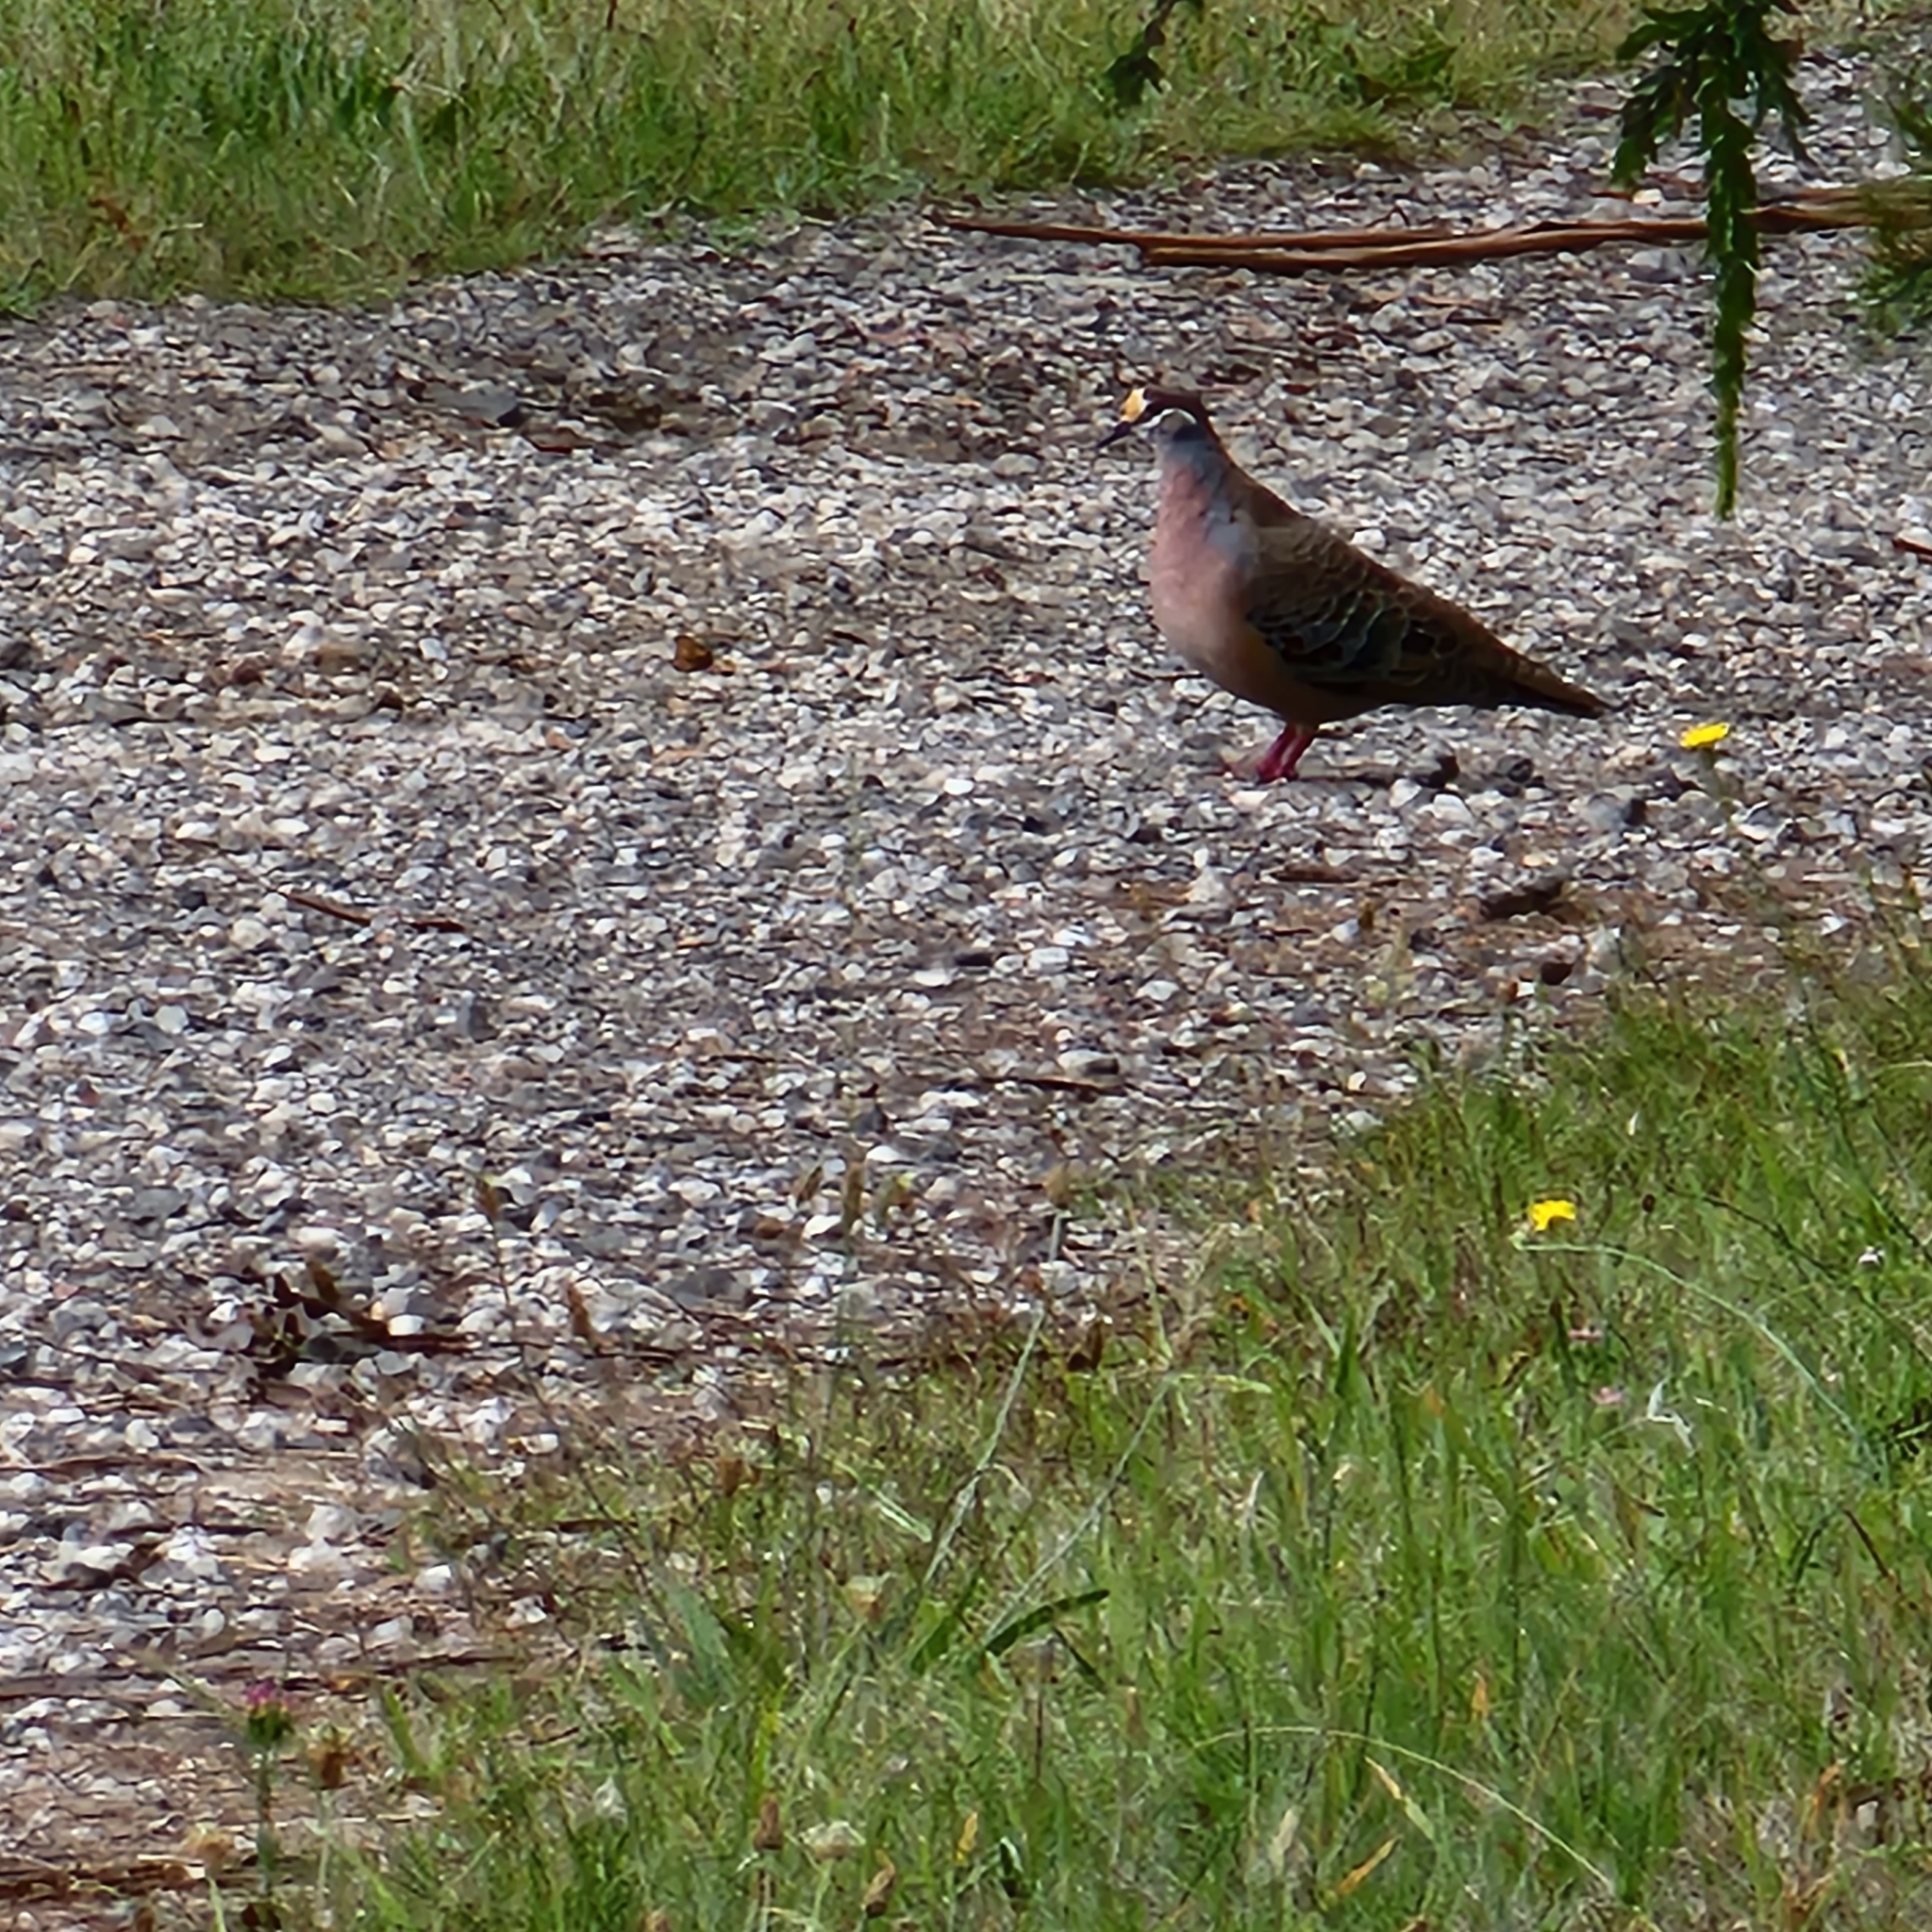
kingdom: Animalia
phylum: Chordata
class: Aves
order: Columbiformes
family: Columbidae
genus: Phaps
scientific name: Phaps chalcoptera
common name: Common bronzewing
